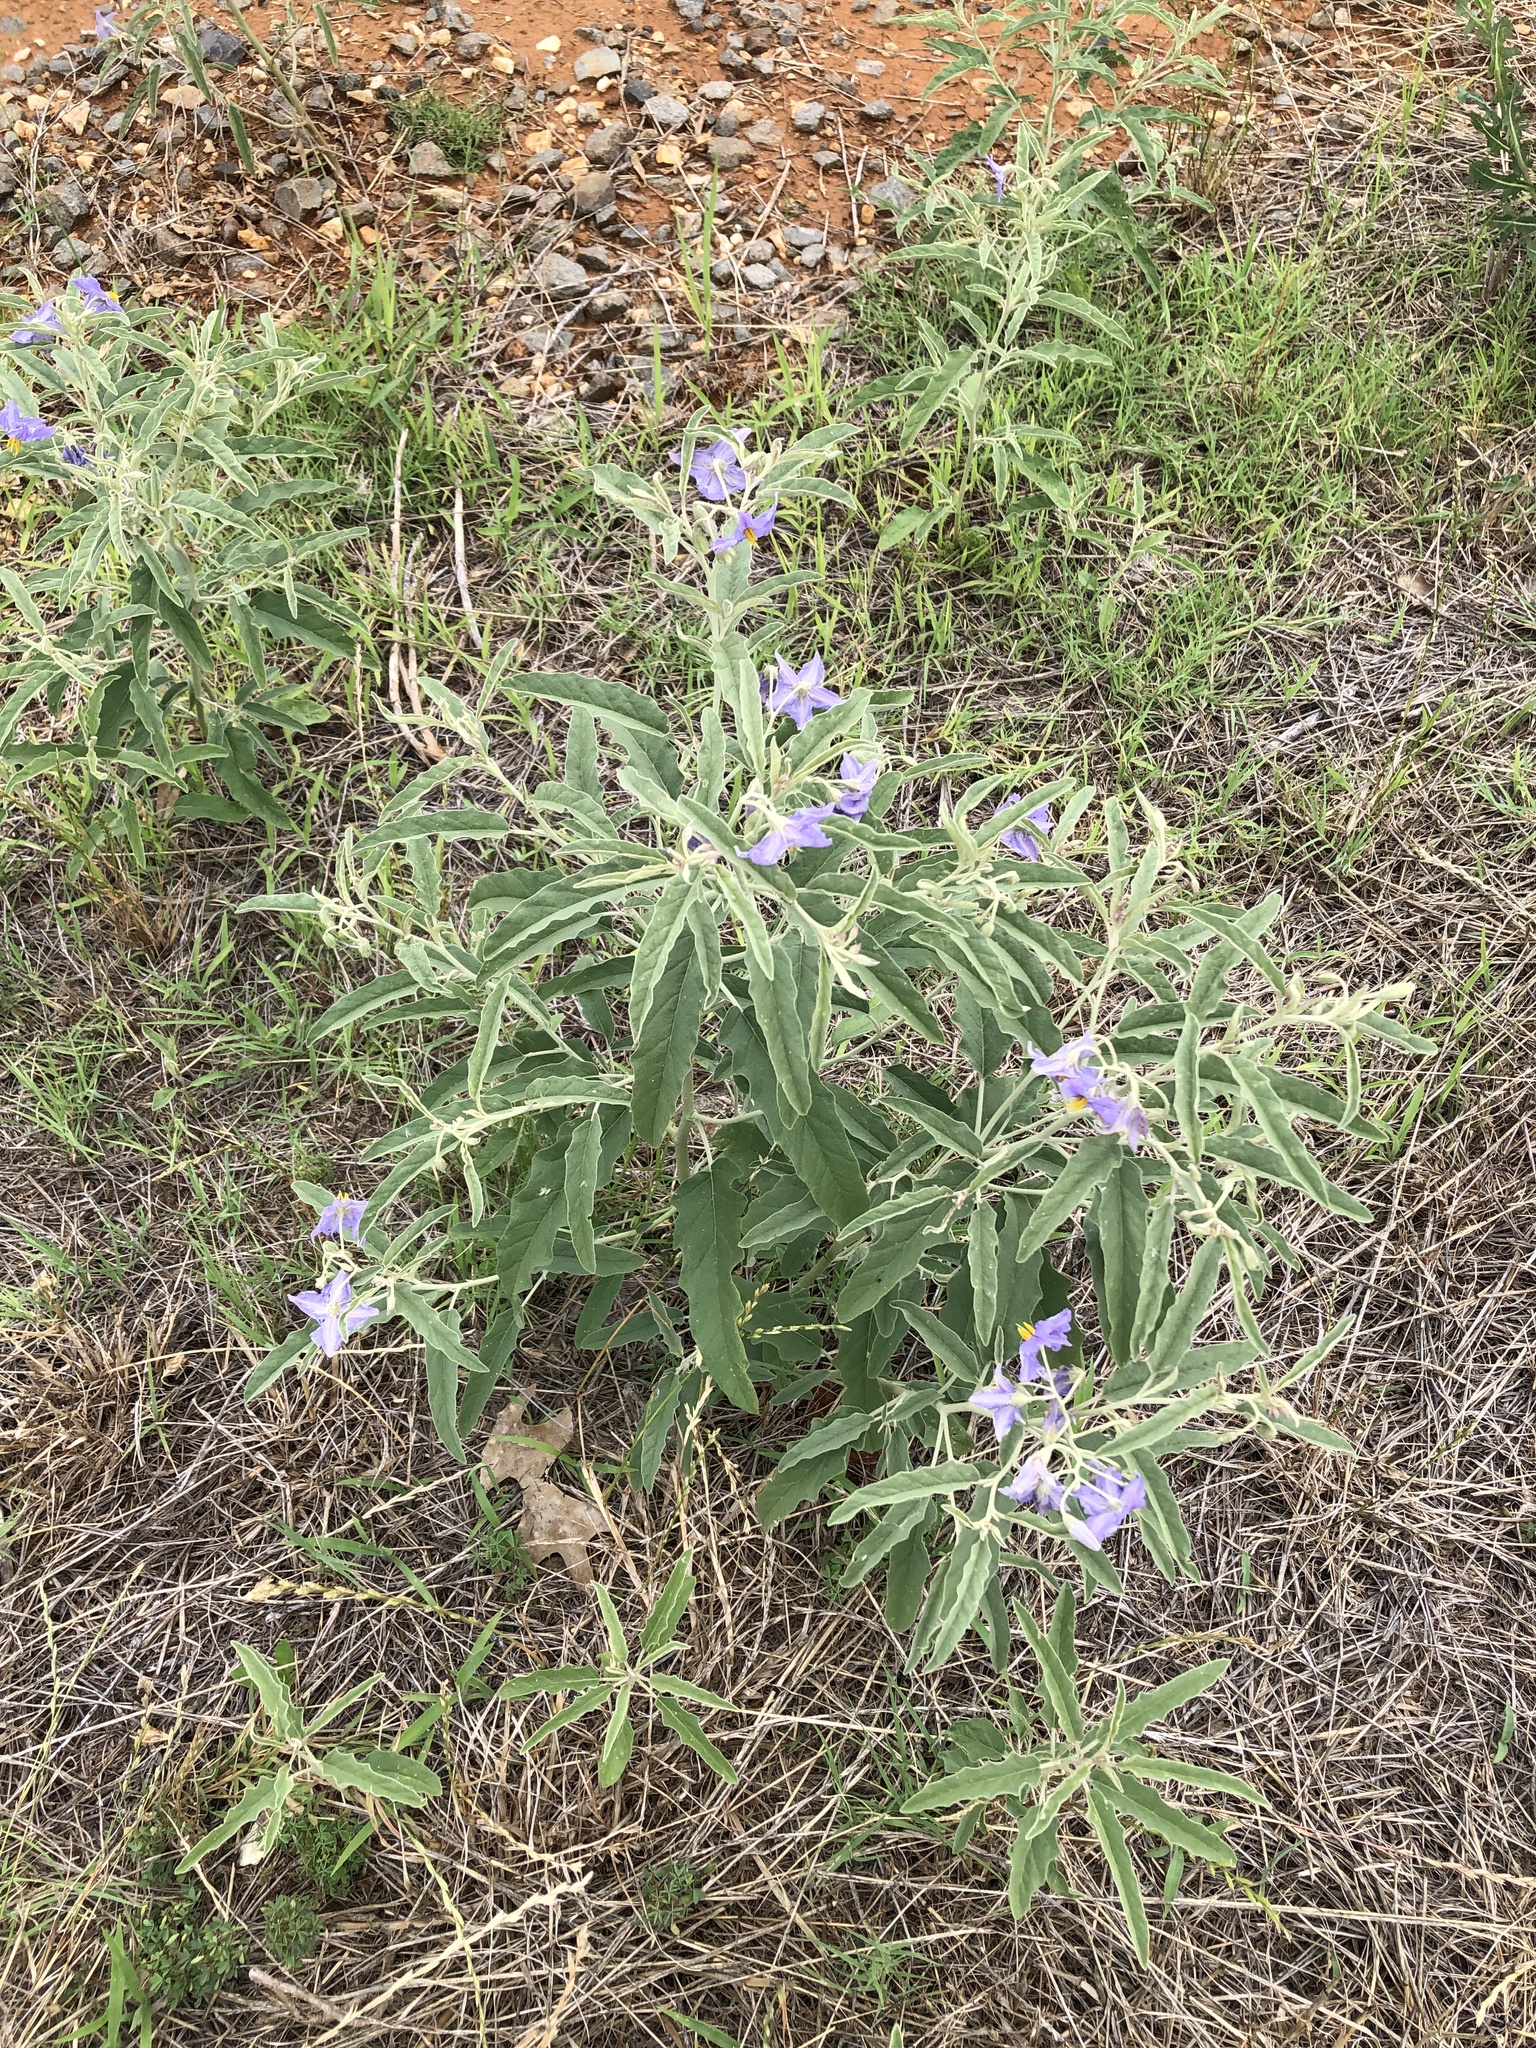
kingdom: Plantae
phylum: Tracheophyta
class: Magnoliopsida
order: Solanales
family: Solanaceae
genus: Solanum
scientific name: Solanum elaeagnifolium
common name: Silverleaf nightshade
